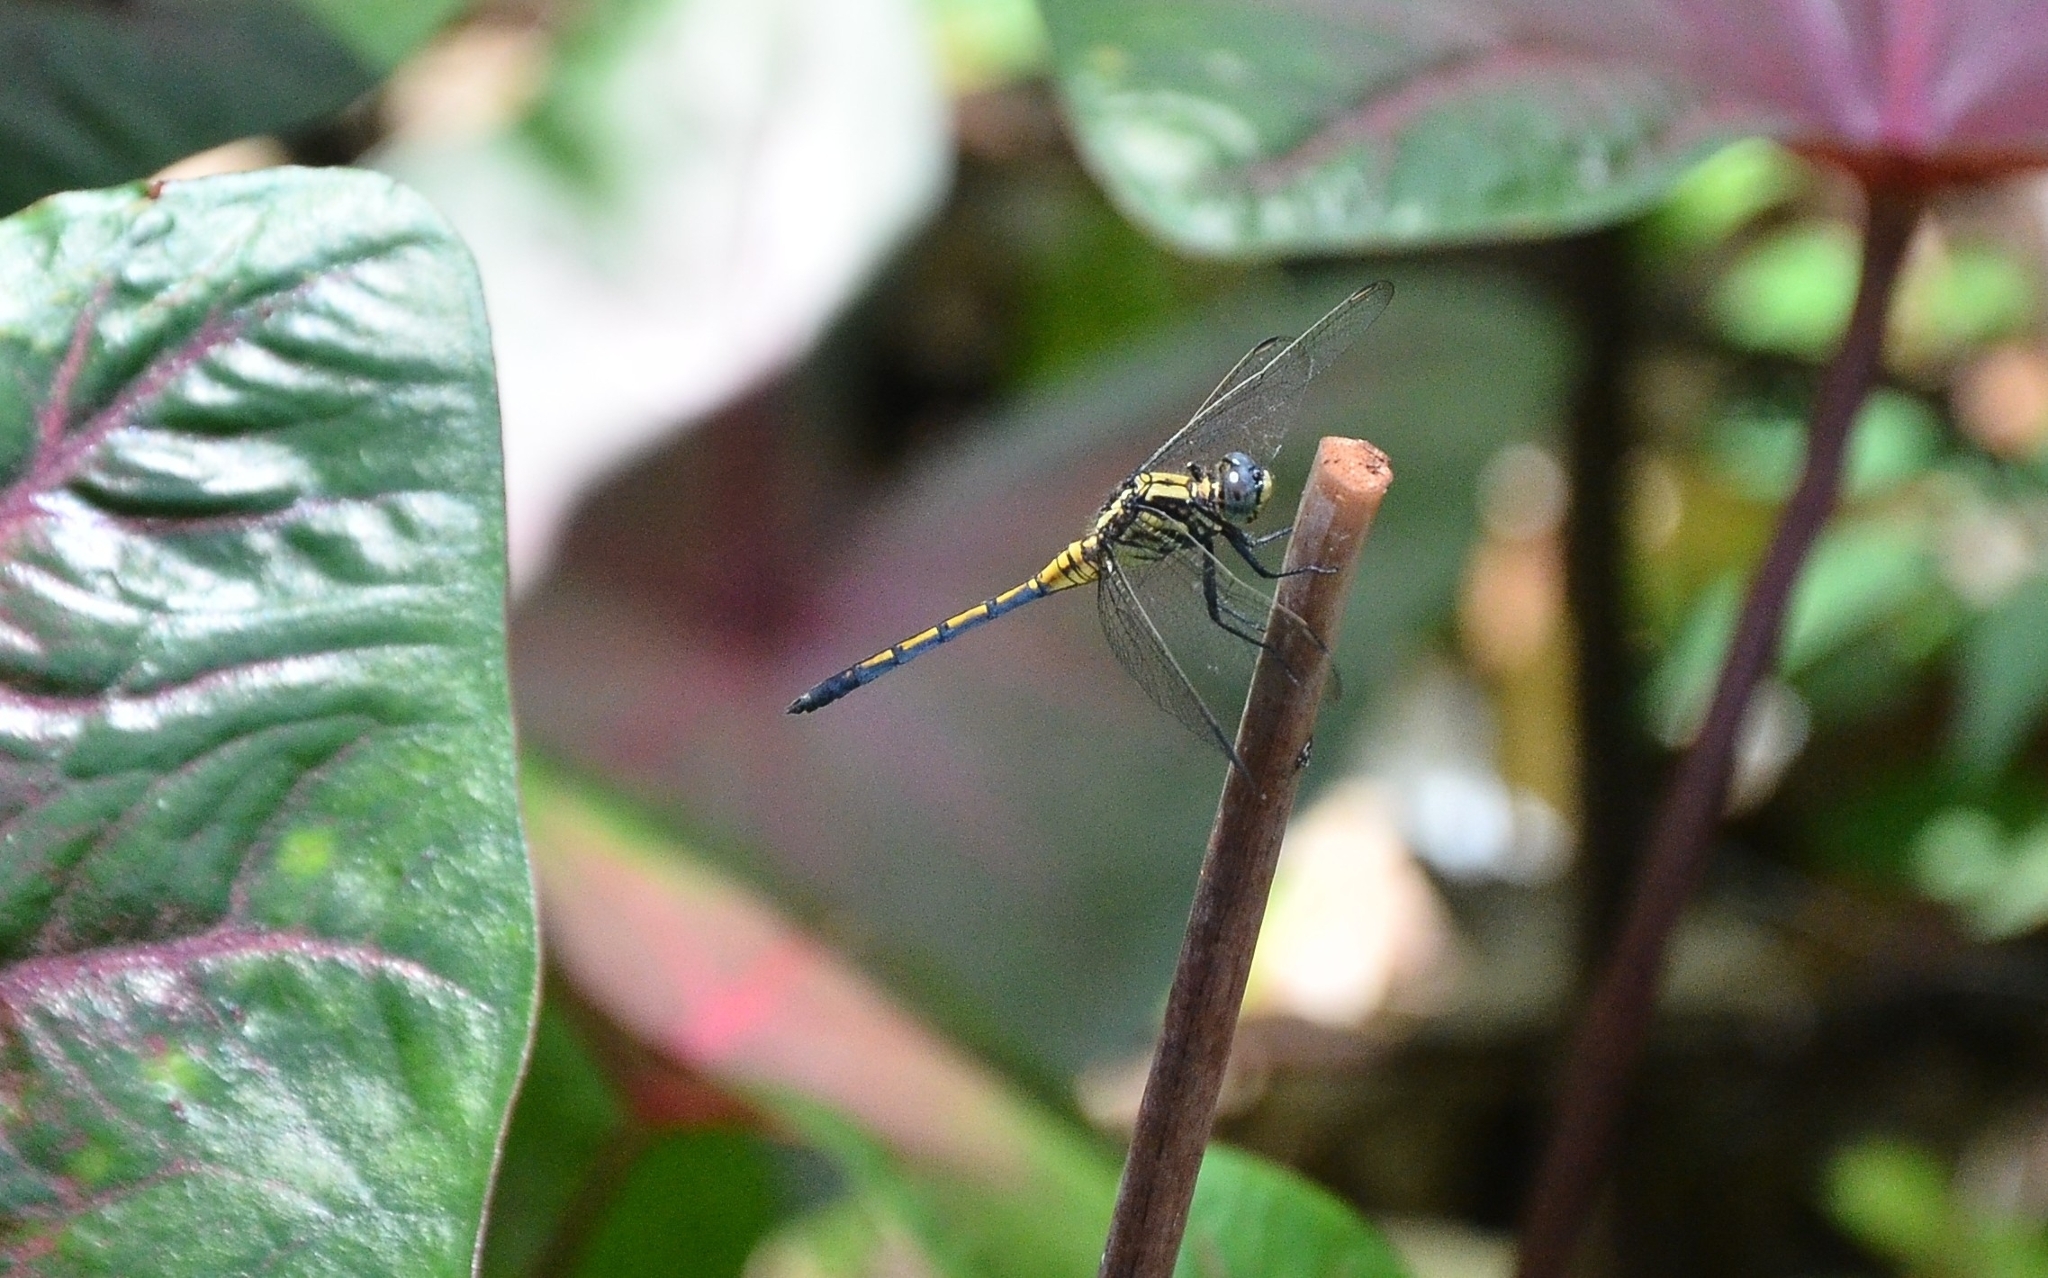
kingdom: Animalia
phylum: Arthropoda
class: Insecta
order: Odonata
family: Libellulidae
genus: Orthetrum
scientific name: Orthetrum luzonicum
